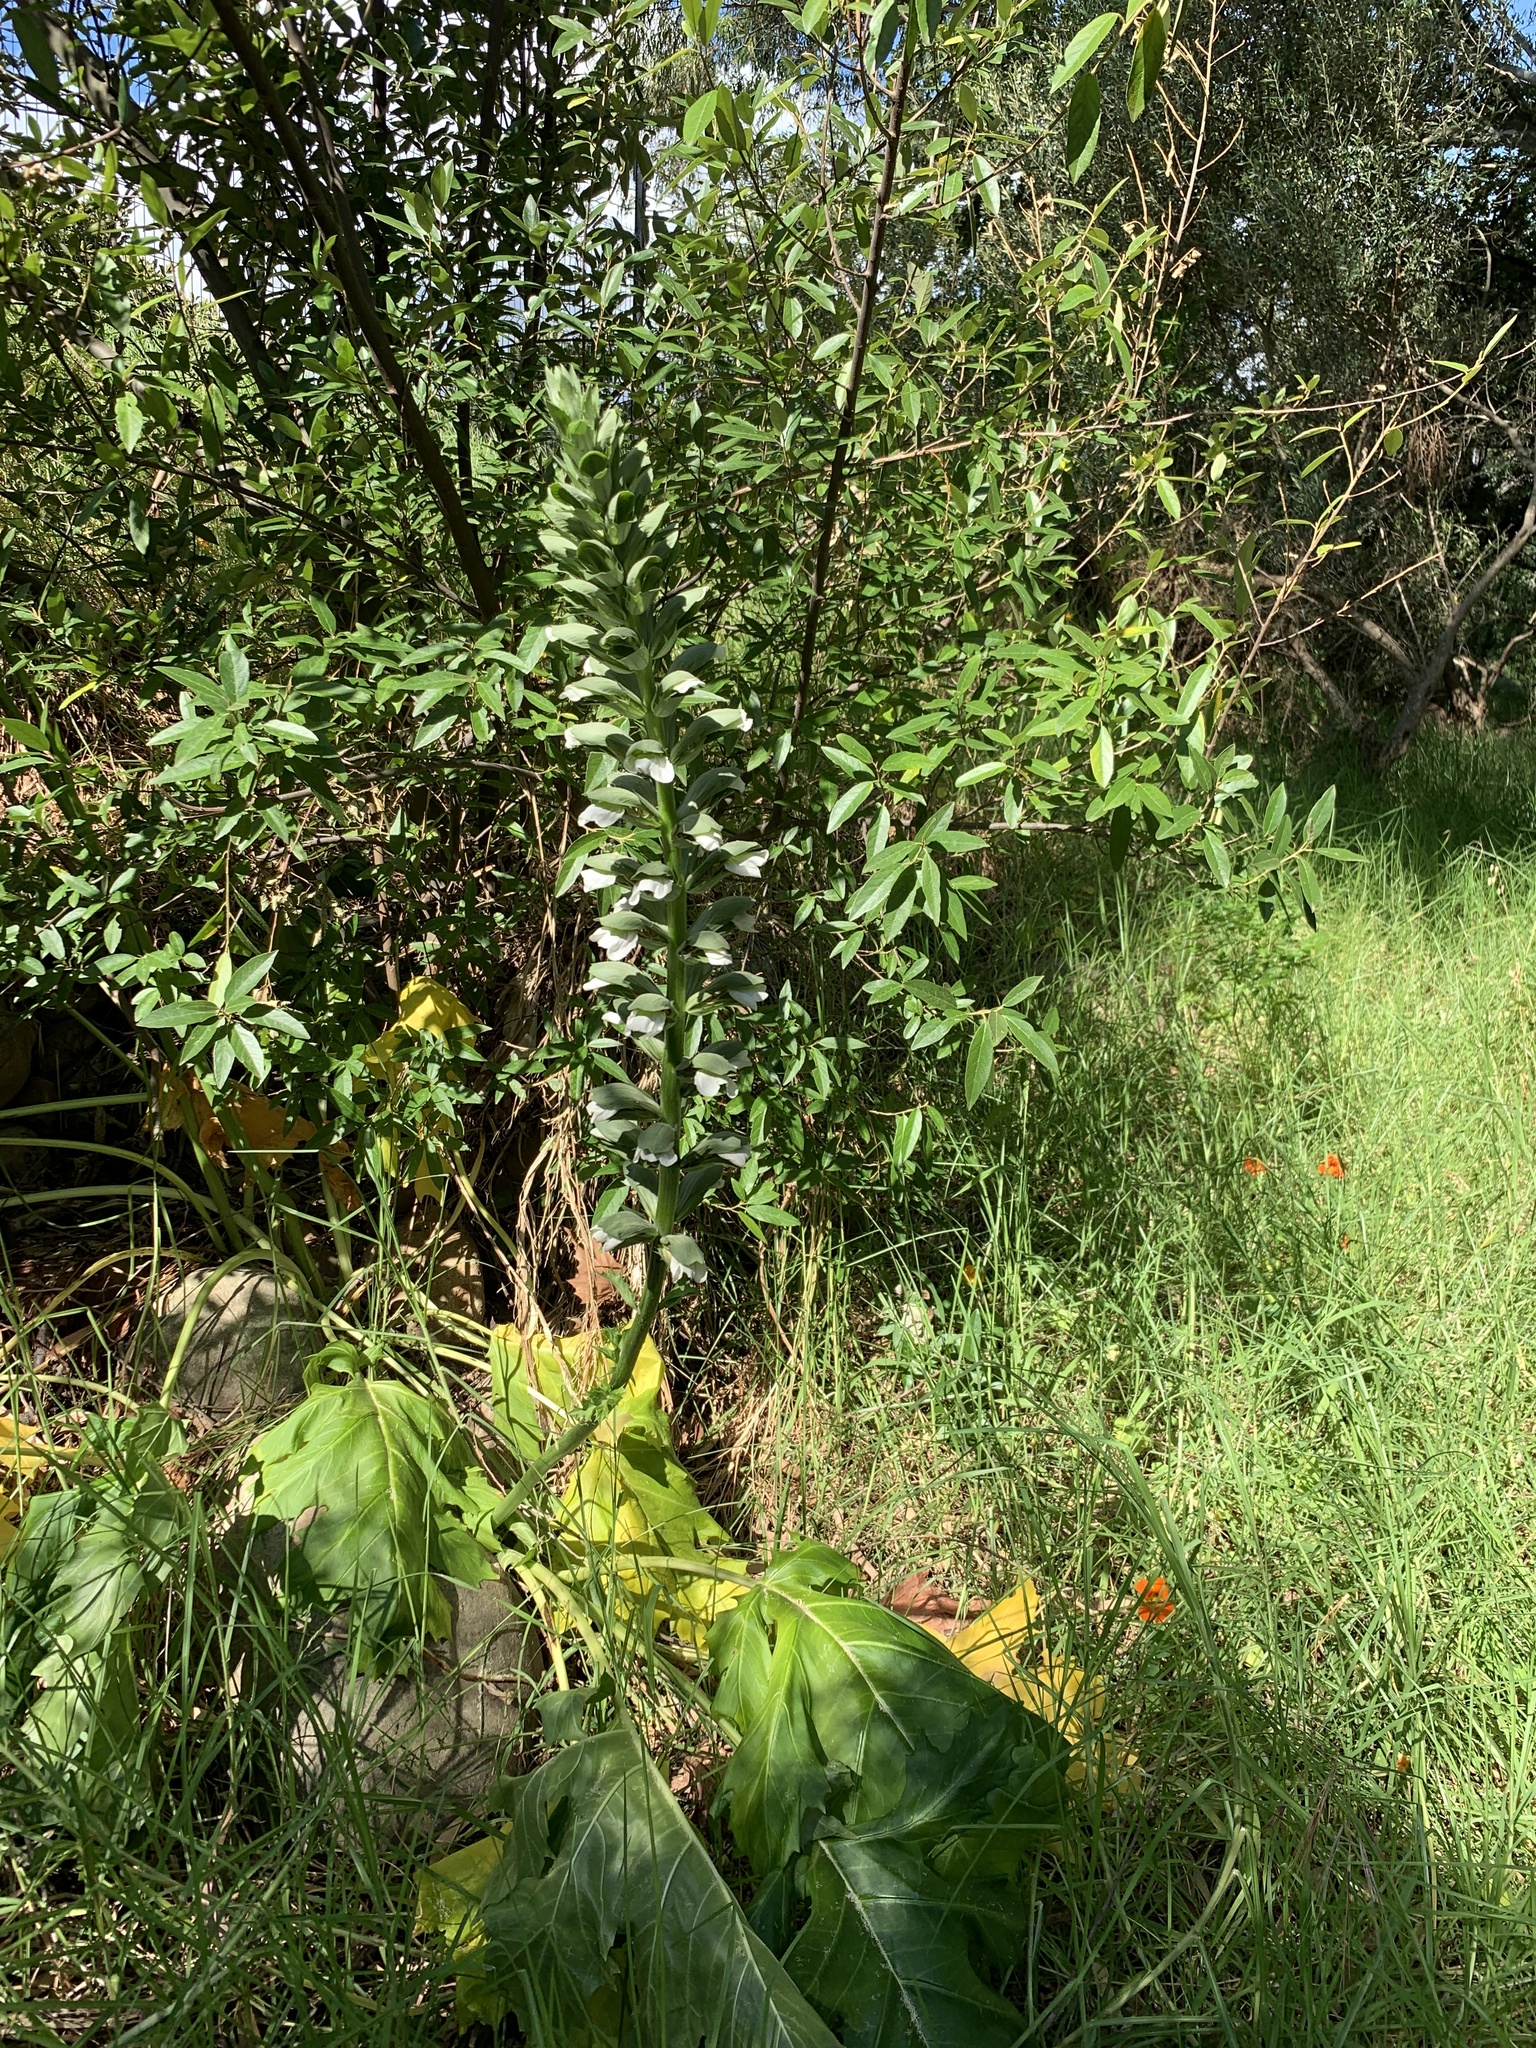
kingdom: Plantae
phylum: Tracheophyta
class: Magnoliopsida
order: Lamiales
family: Acanthaceae
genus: Acanthus
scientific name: Acanthus mollis
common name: Bear's-breech
